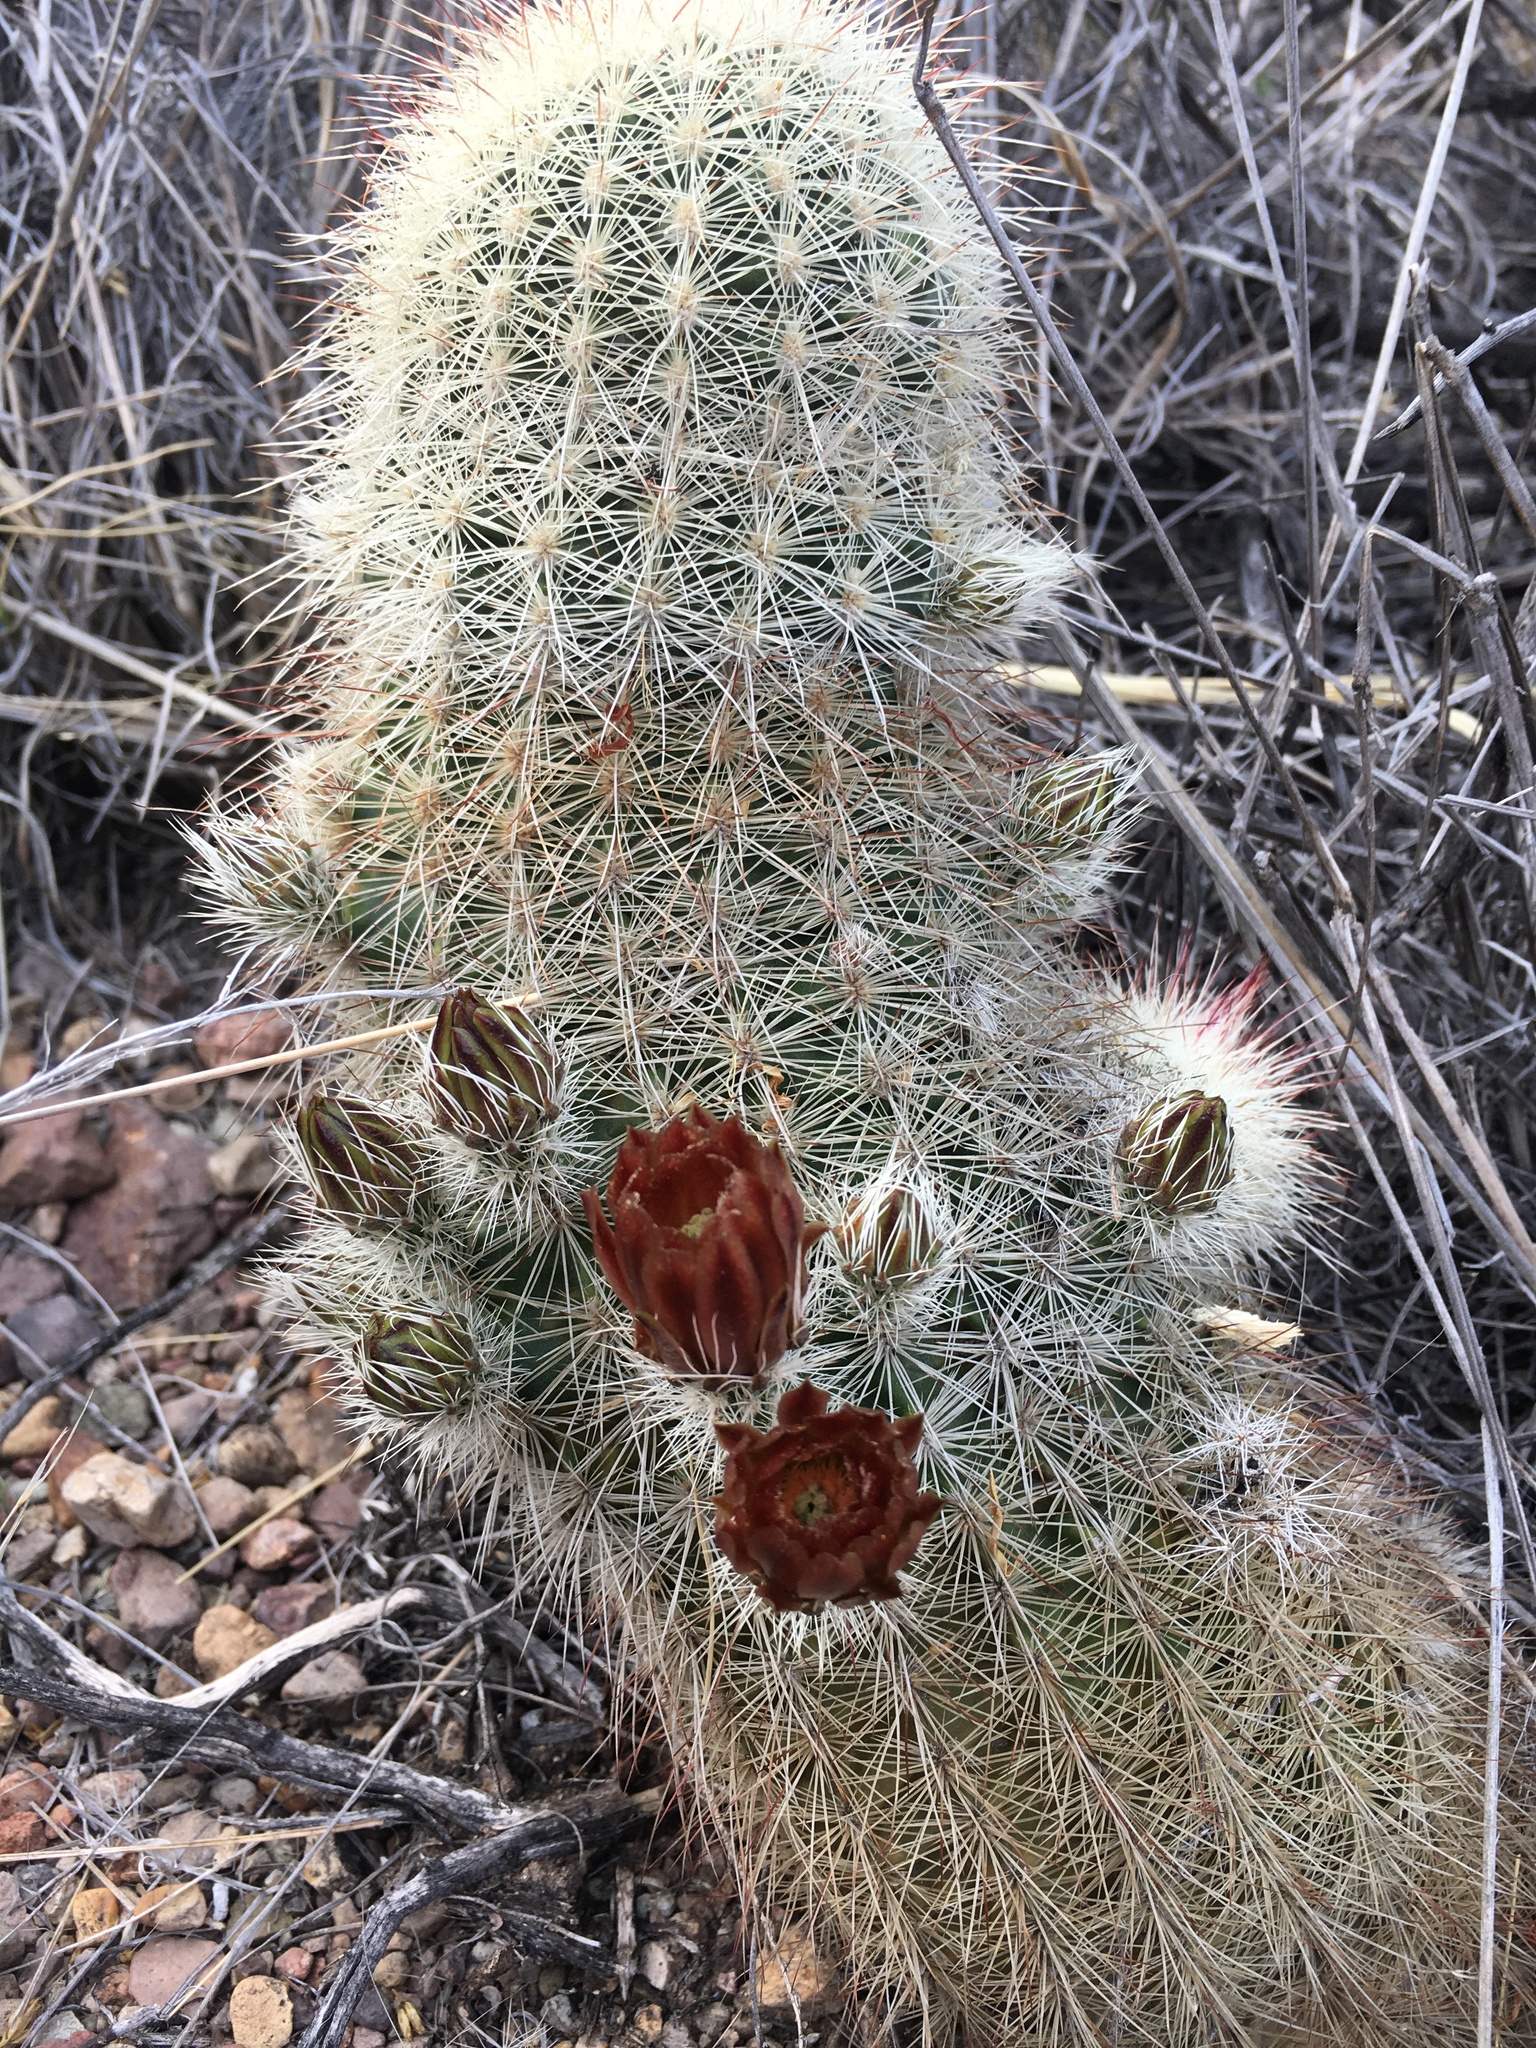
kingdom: Plantae
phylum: Tracheophyta
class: Magnoliopsida
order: Caryophyllales
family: Cactaceae
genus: Echinocereus
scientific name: Echinocereus russanthus
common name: Brownspine hedgehog cactus
